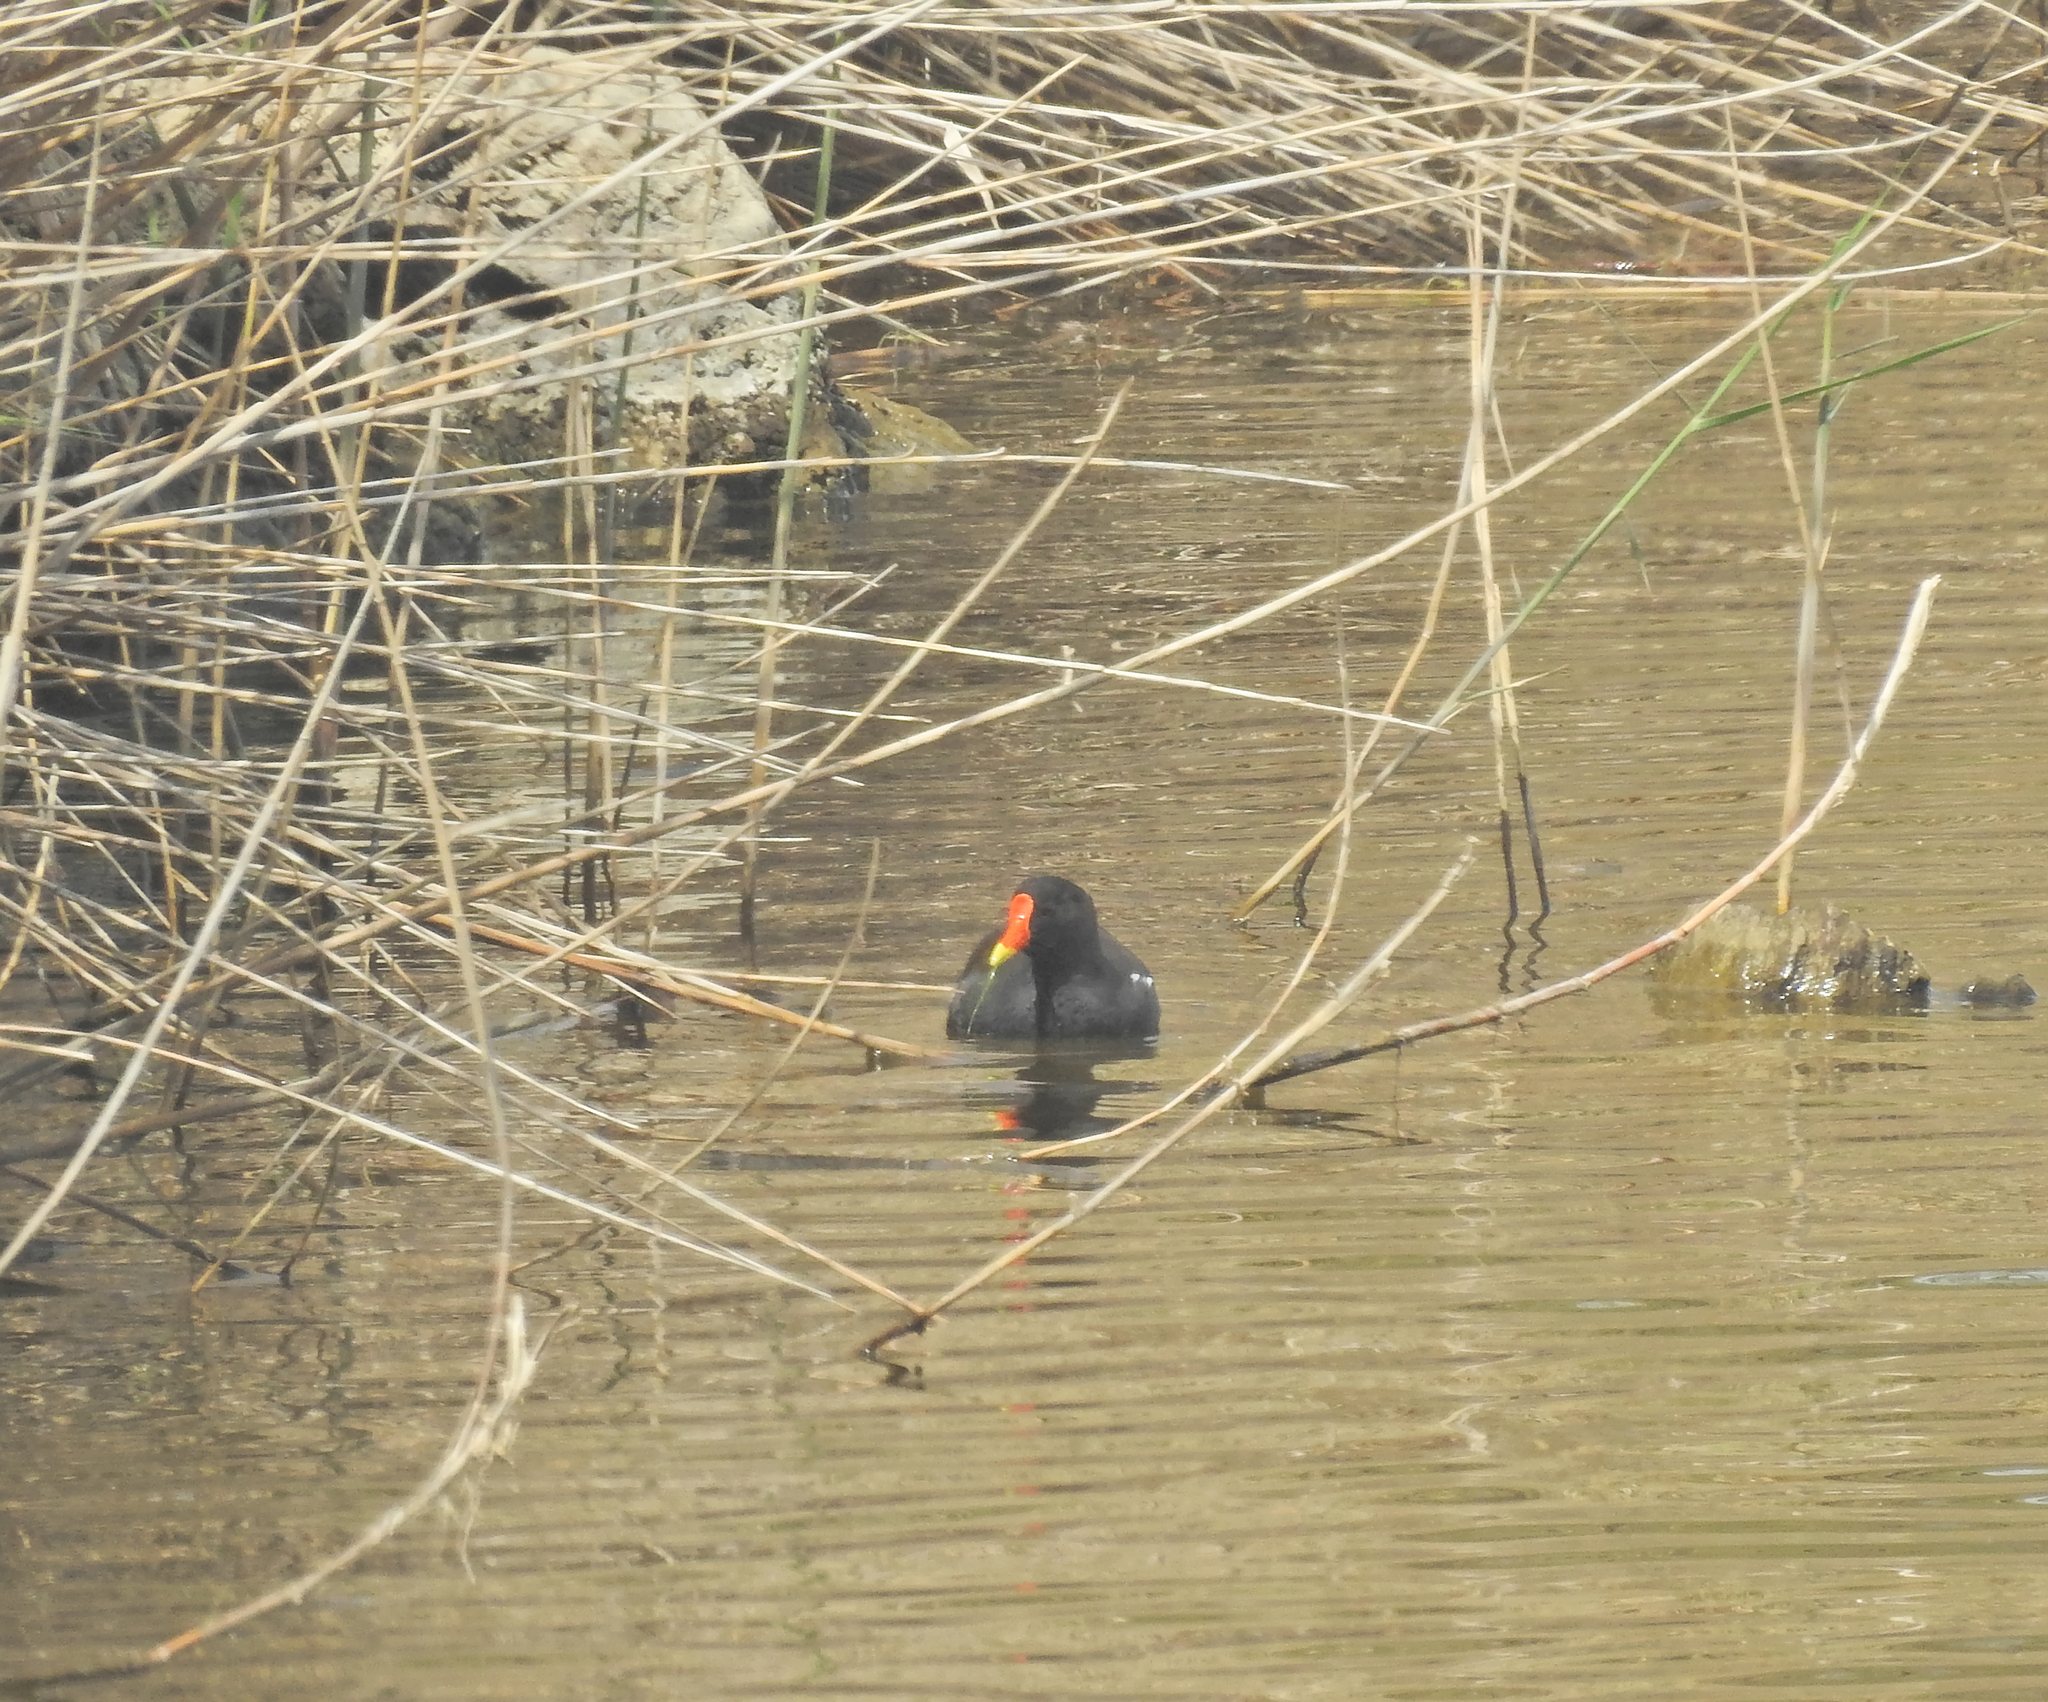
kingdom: Animalia
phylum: Chordata
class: Aves
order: Gruiformes
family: Rallidae
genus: Gallinula
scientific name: Gallinula chloropus
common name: Common moorhen
